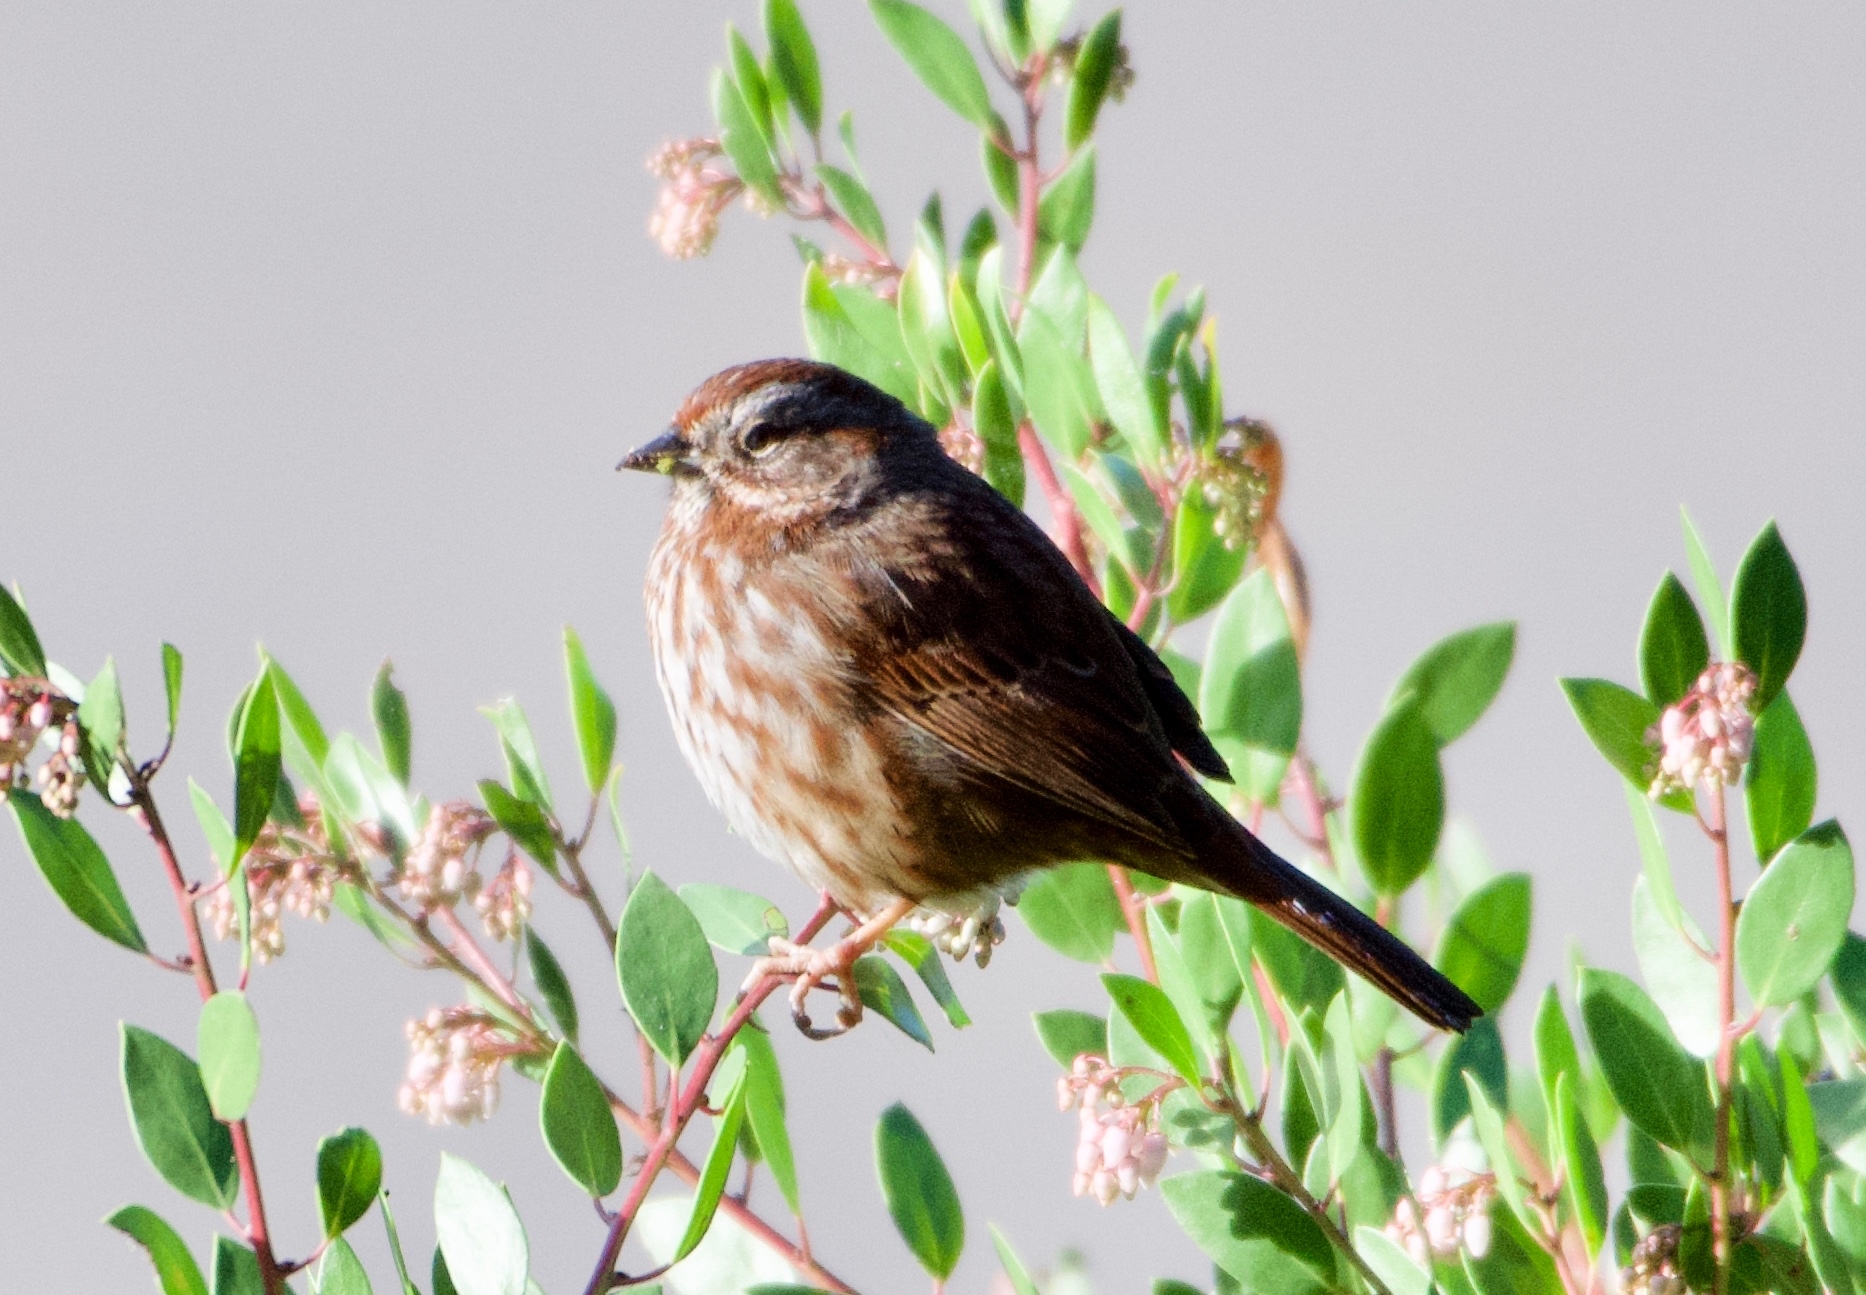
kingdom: Animalia
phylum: Chordata
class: Aves
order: Passeriformes
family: Passerellidae
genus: Melospiza
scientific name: Melospiza melodia
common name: Song sparrow
